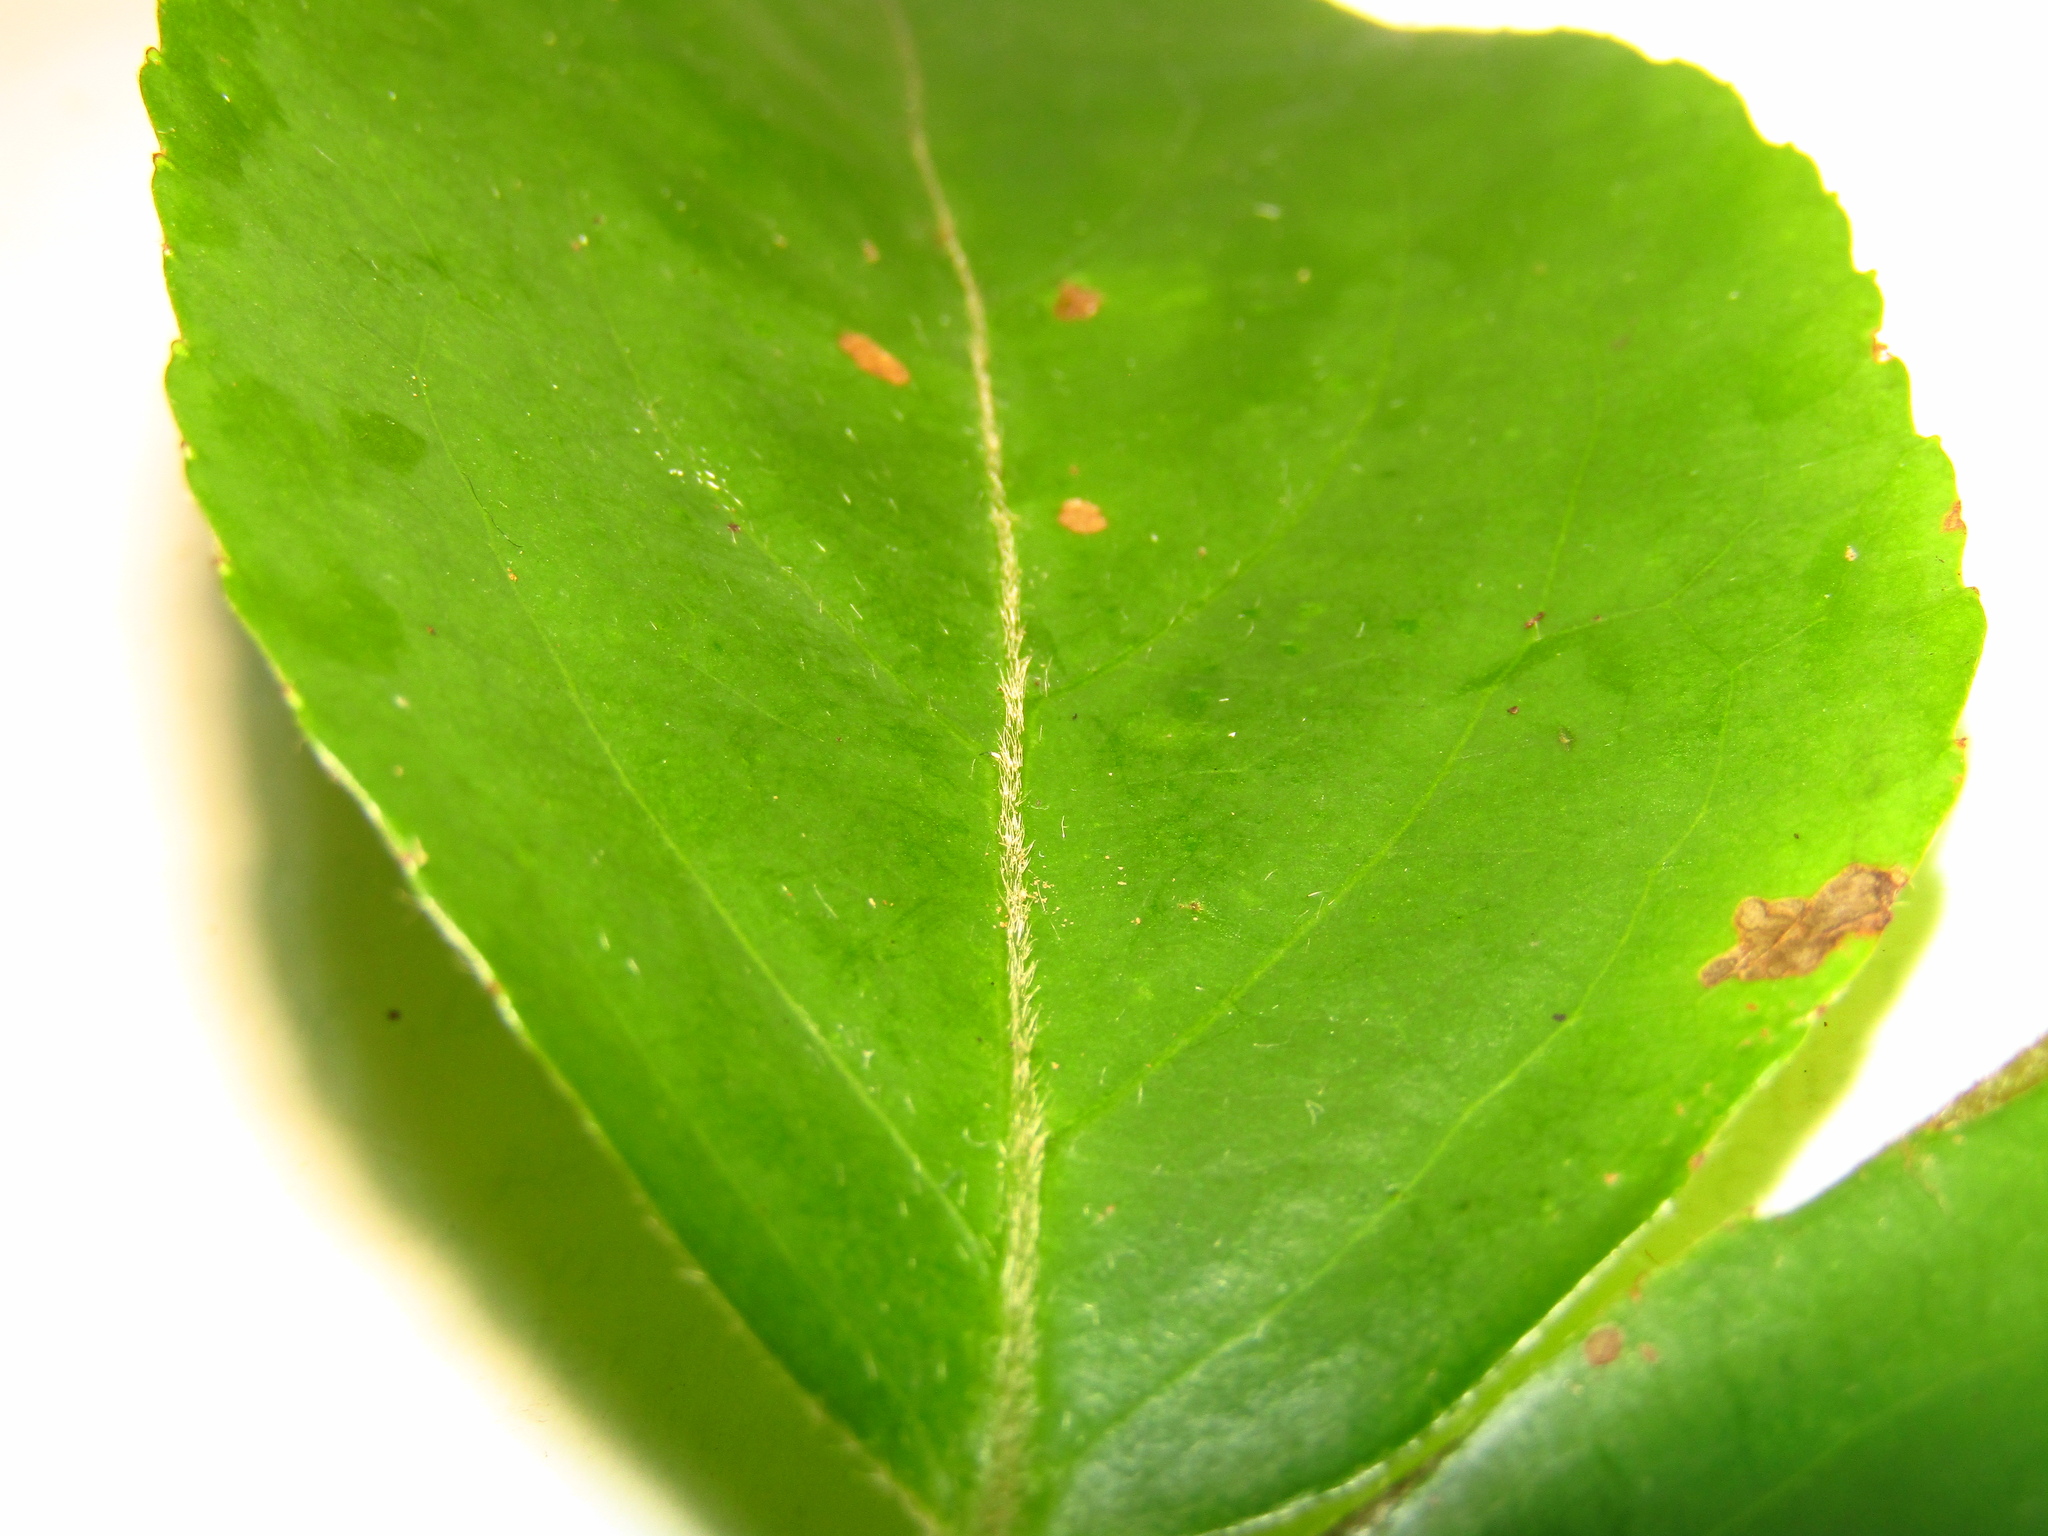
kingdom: Plantae
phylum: Tracheophyta
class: Magnoliopsida
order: Laurales
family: Atherospermataceae
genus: Daphnandra
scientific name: Daphnandra melasmena
